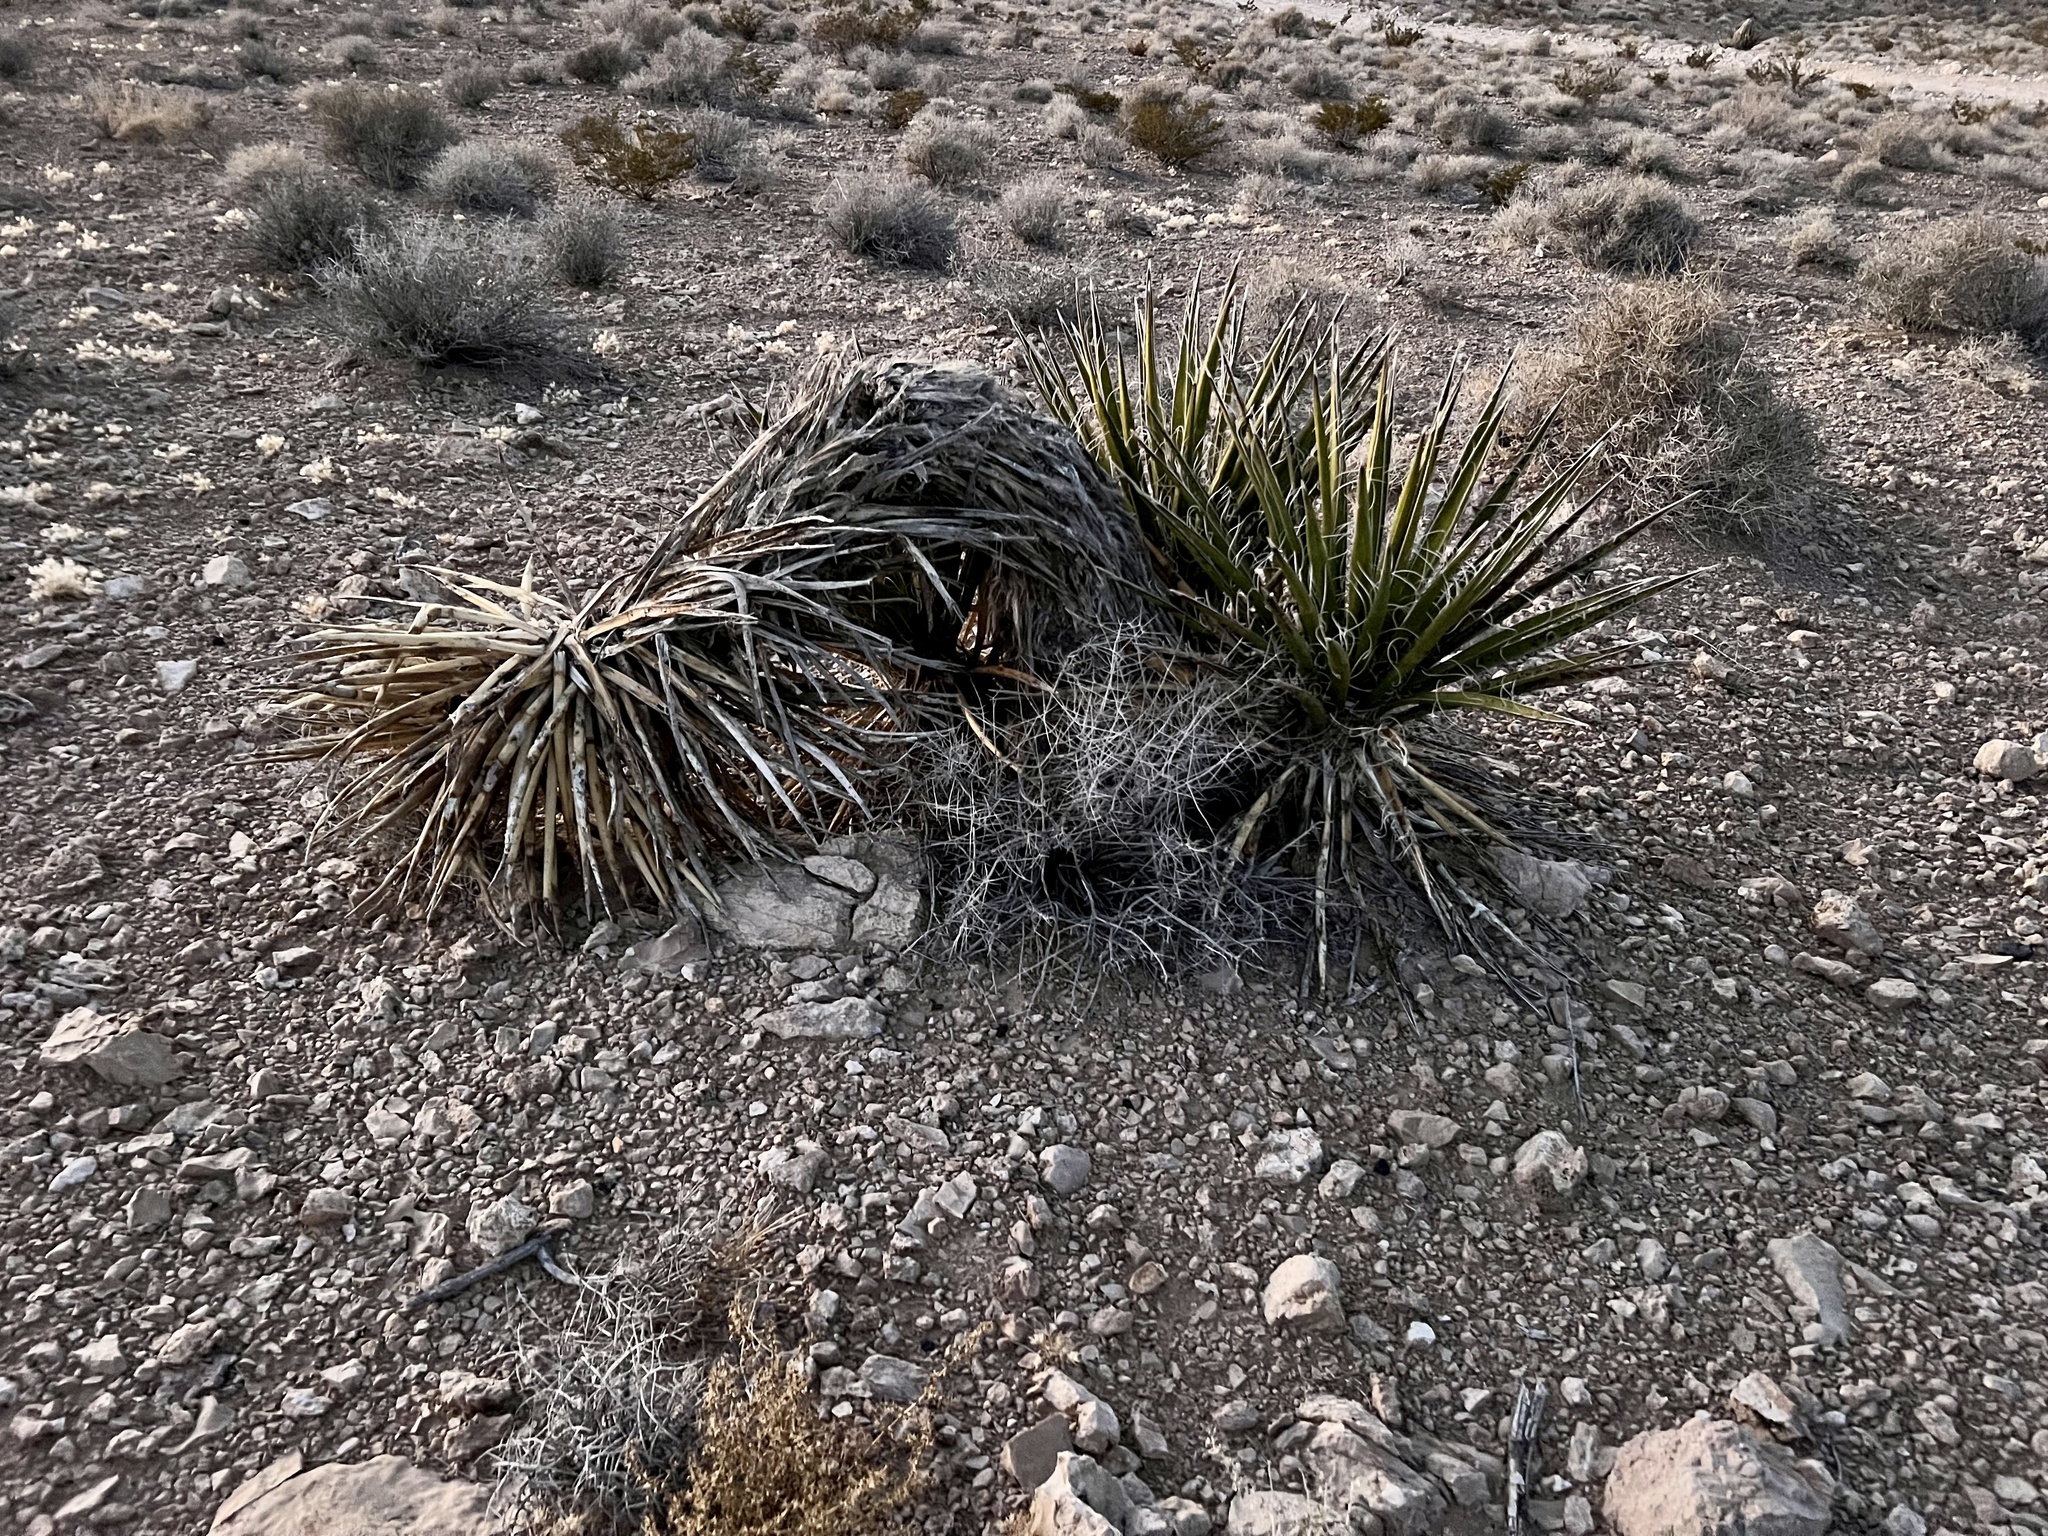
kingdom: Plantae
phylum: Tracheophyta
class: Liliopsida
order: Asparagales
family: Asparagaceae
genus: Yucca
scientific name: Yucca schidigera
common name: Mojave yucca
